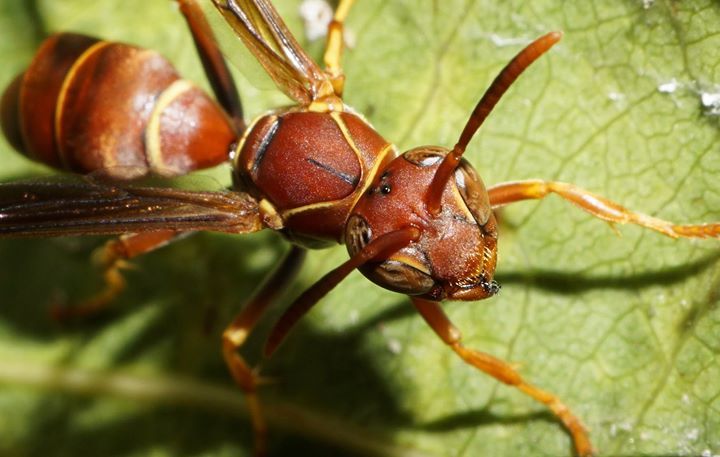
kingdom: Animalia
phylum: Arthropoda
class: Insecta
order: Hymenoptera
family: Eumenidae
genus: Polistes
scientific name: Polistes dorsalis
